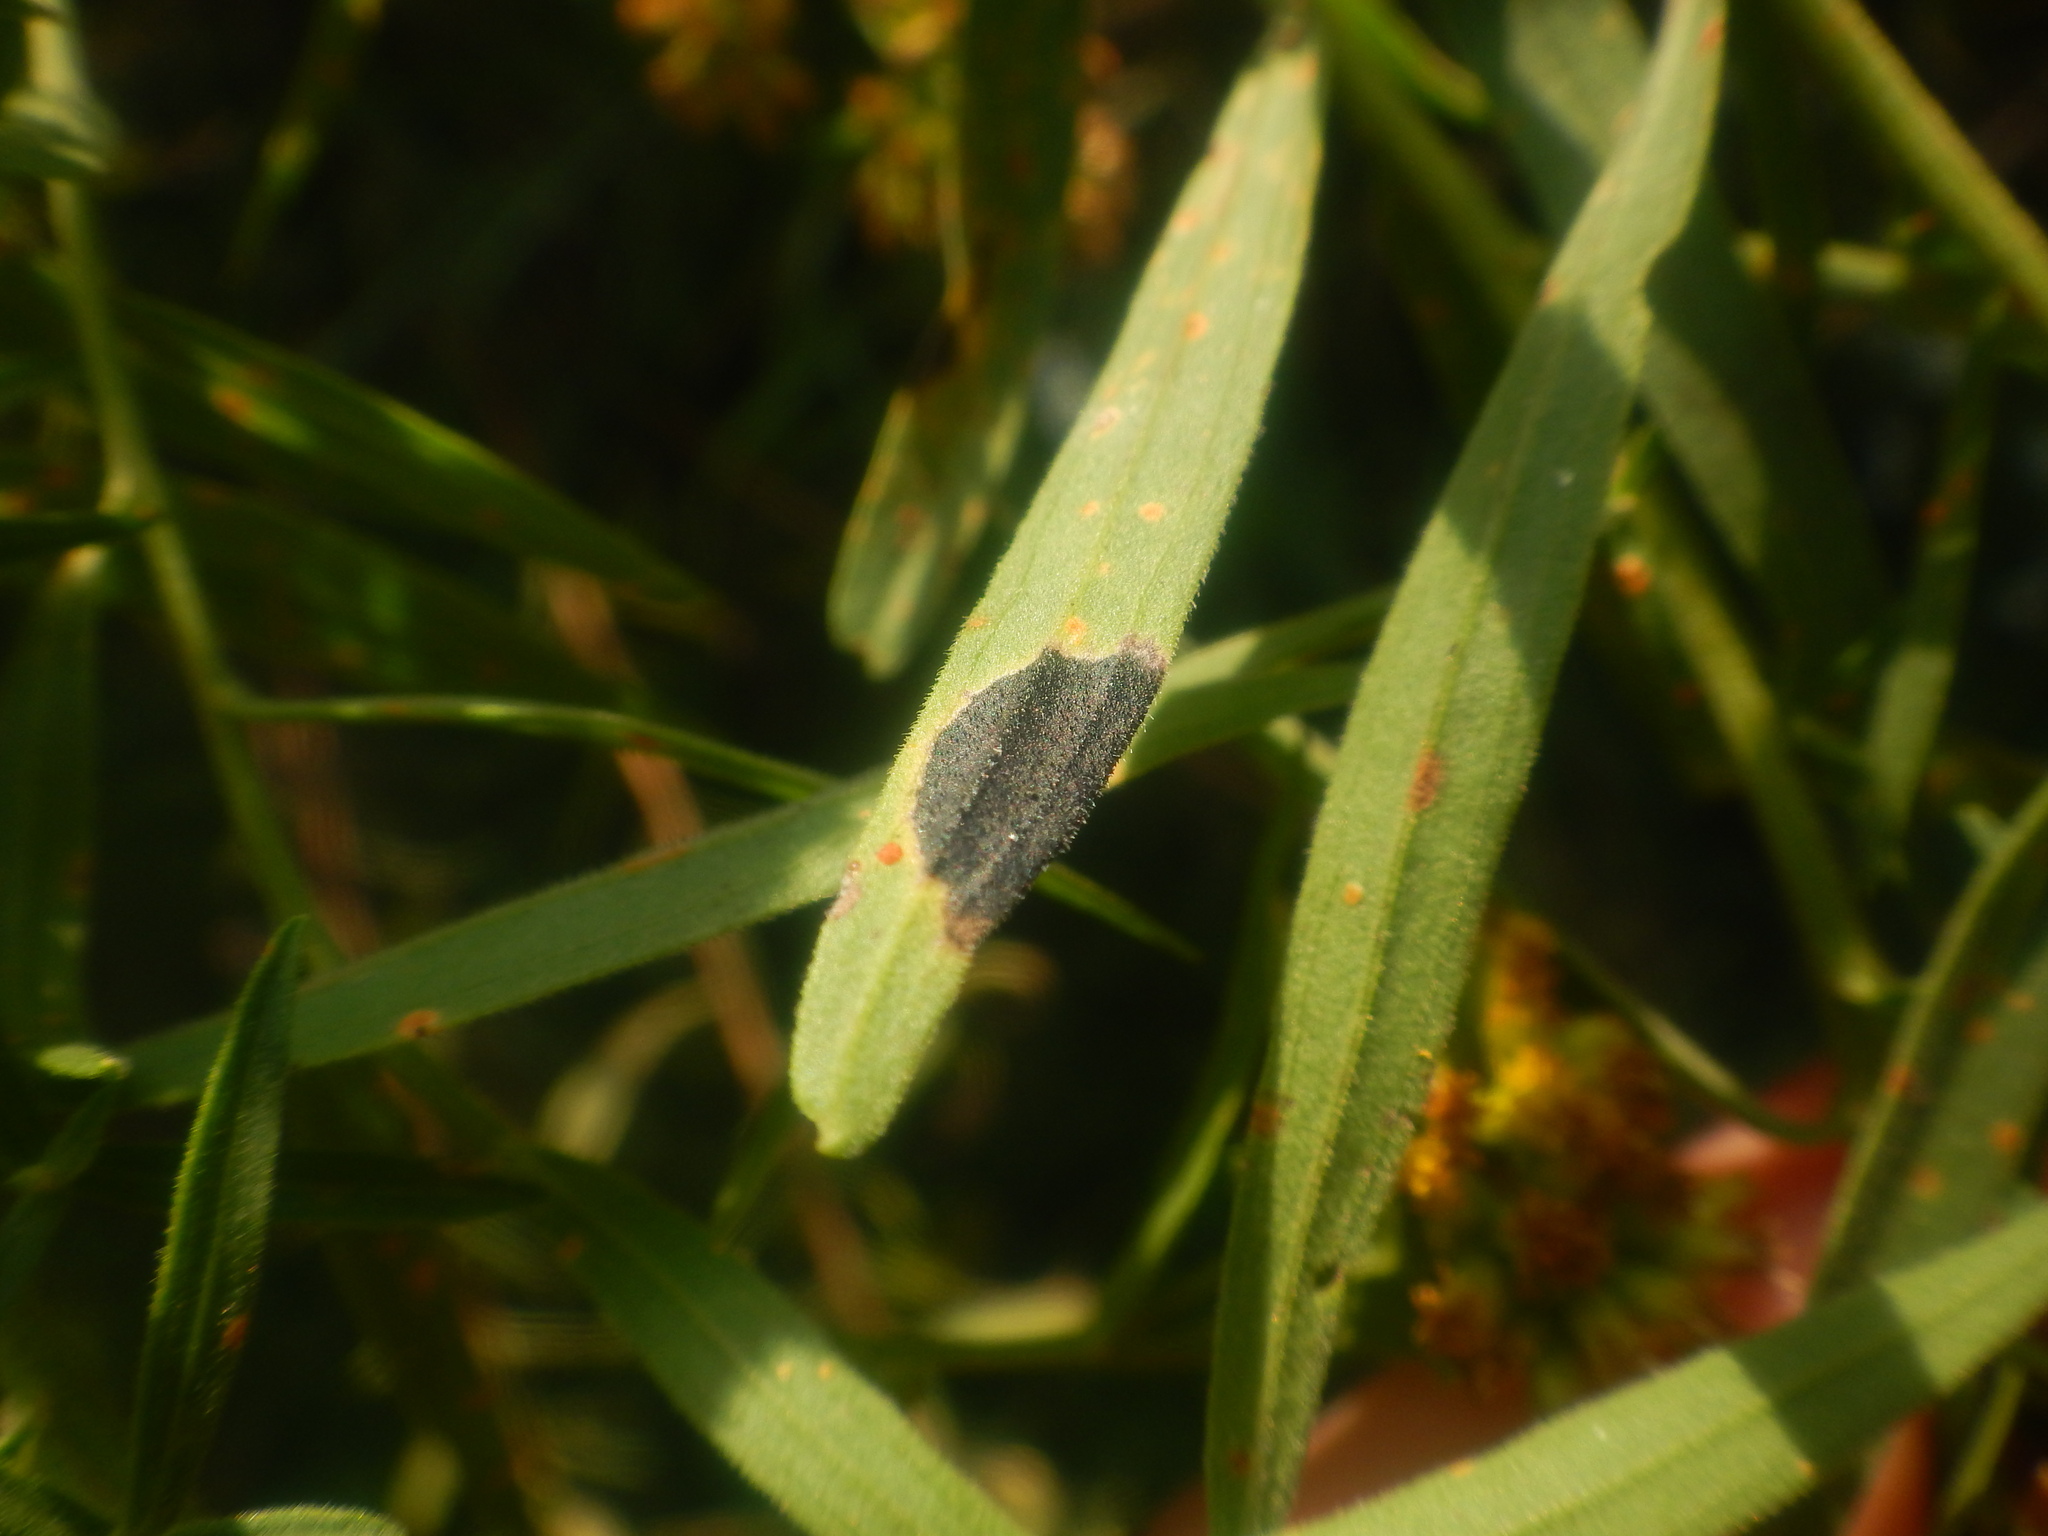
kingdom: Animalia
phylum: Arthropoda
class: Insecta
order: Diptera
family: Cecidomyiidae
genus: Asteromyia
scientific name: Asteromyia euthamiae
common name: Euthamia leaf gall midge
